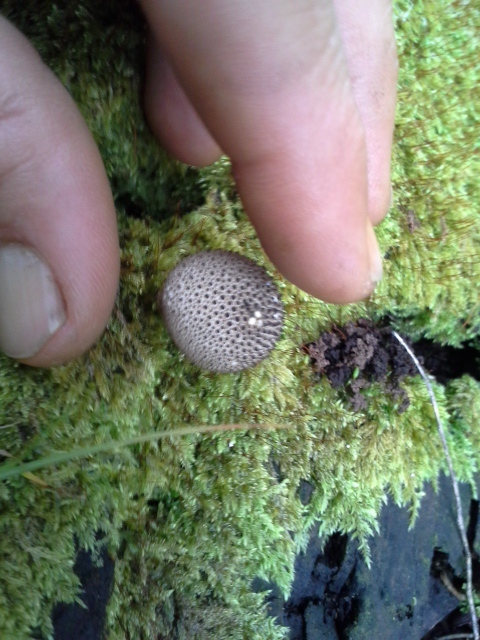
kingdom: Fungi
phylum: Basidiomycota
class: Agaricomycetes
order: Agaricales
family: Lycoperdaceae
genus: Lycoperdon
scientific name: Lycoperdon perlatum
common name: Common puffball
